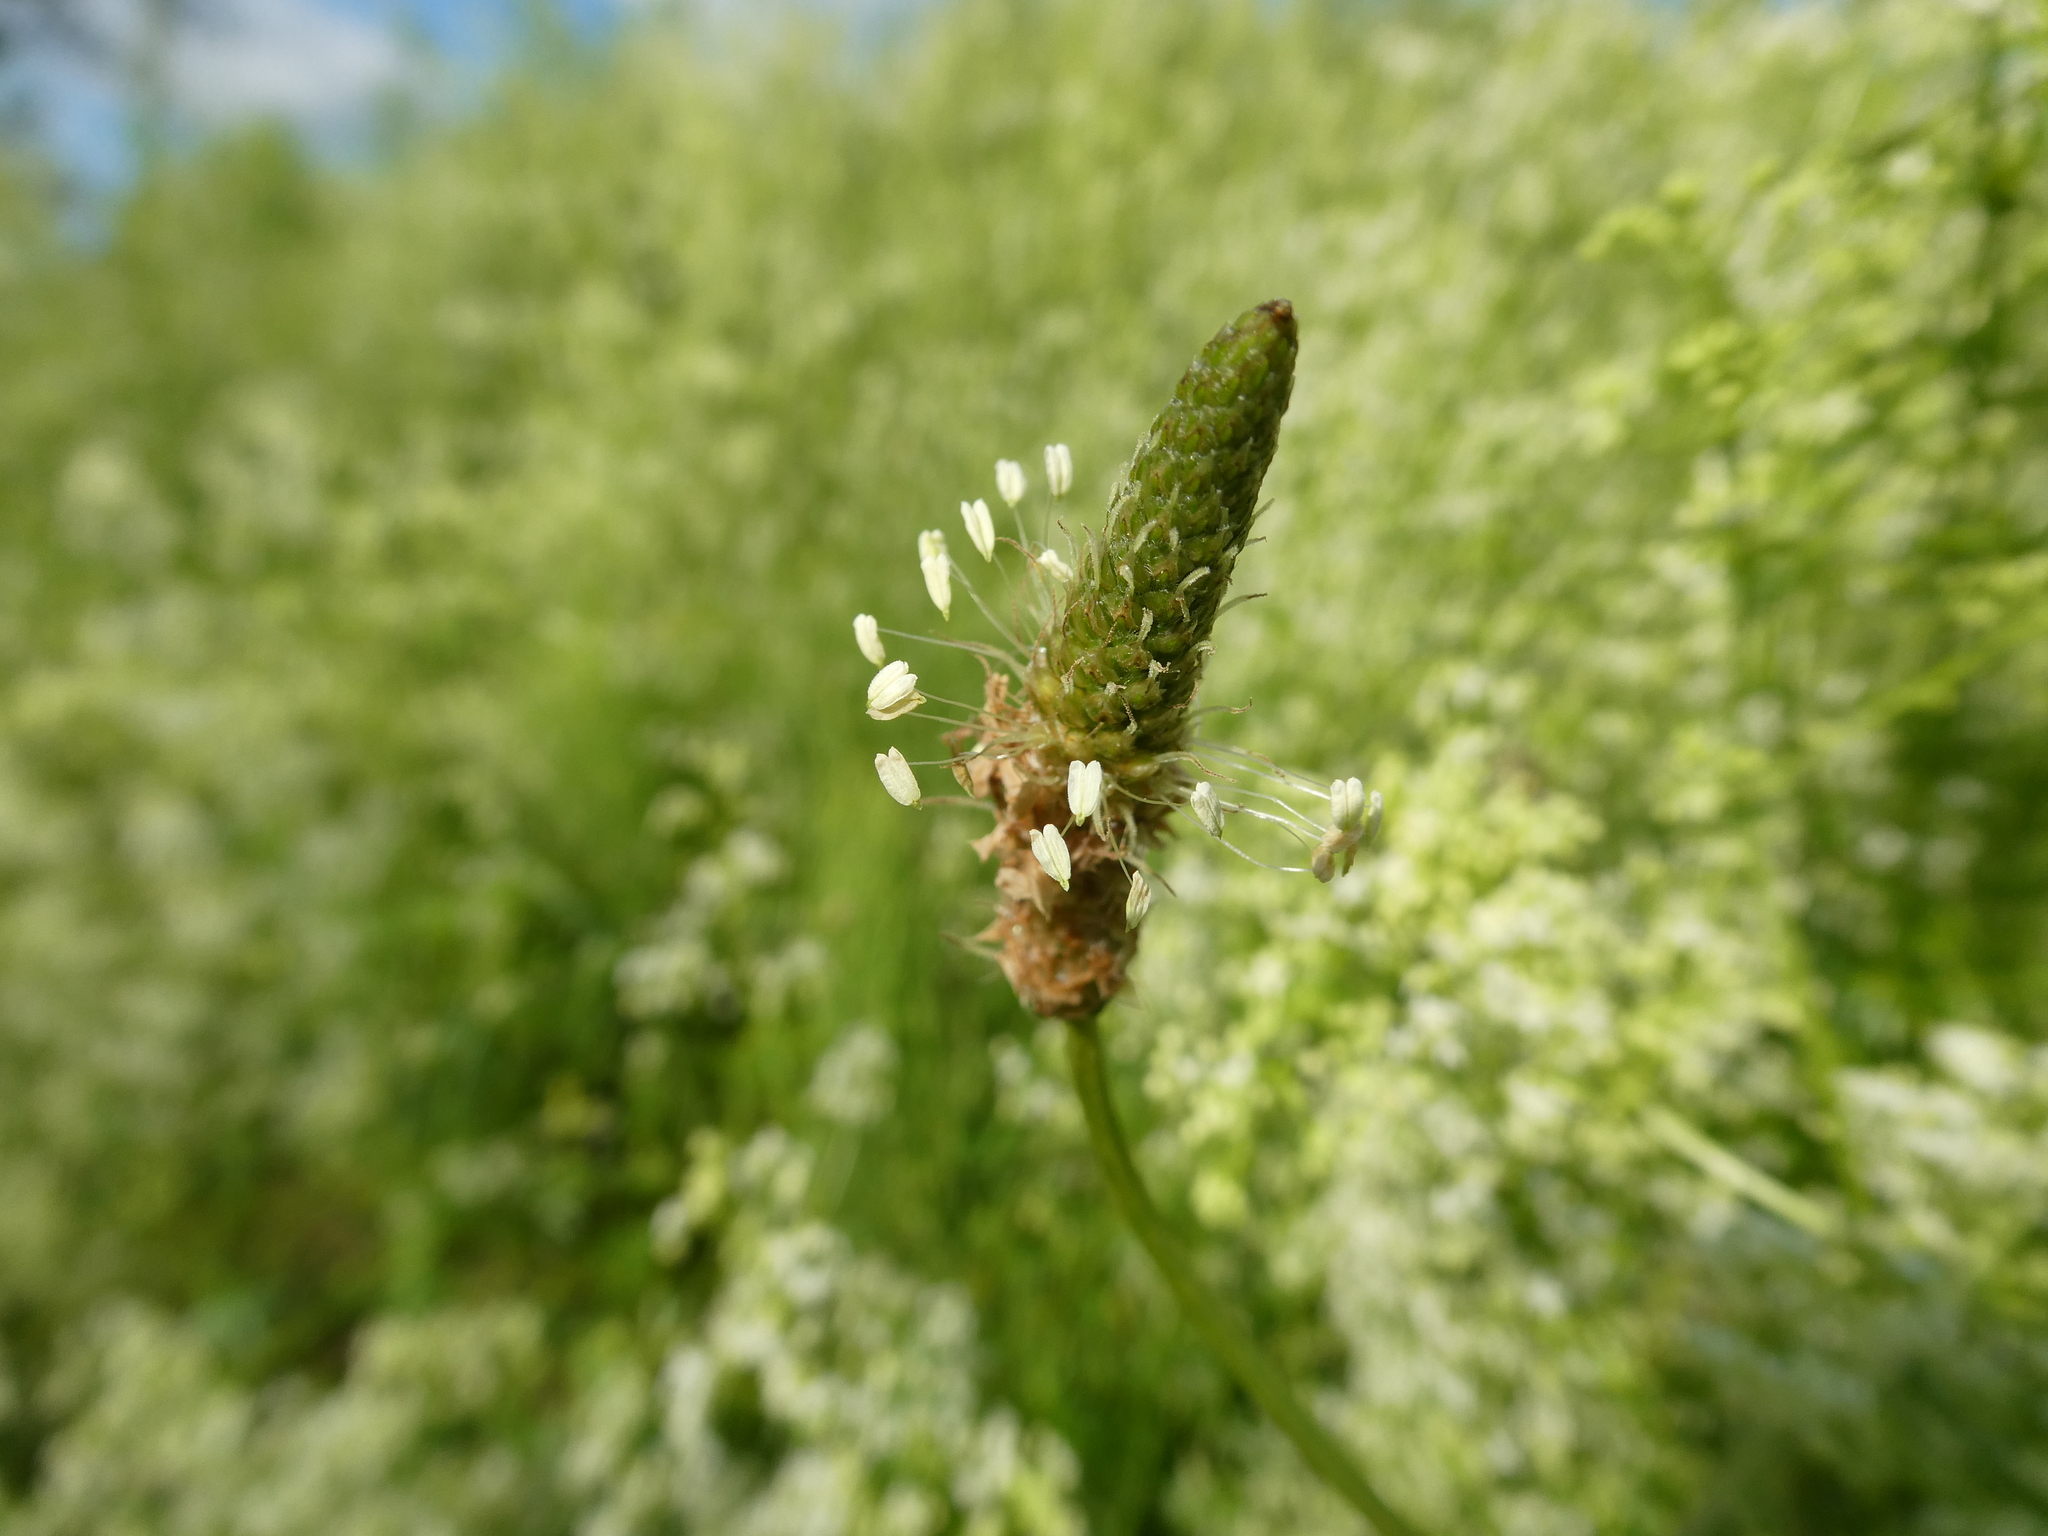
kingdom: Plantae
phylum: Tracheophyta
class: Magnoliopsida
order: Lamiales
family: Plantaginaceae
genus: Plantago
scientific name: Plantago lanceolata
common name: Ribwort plantain
